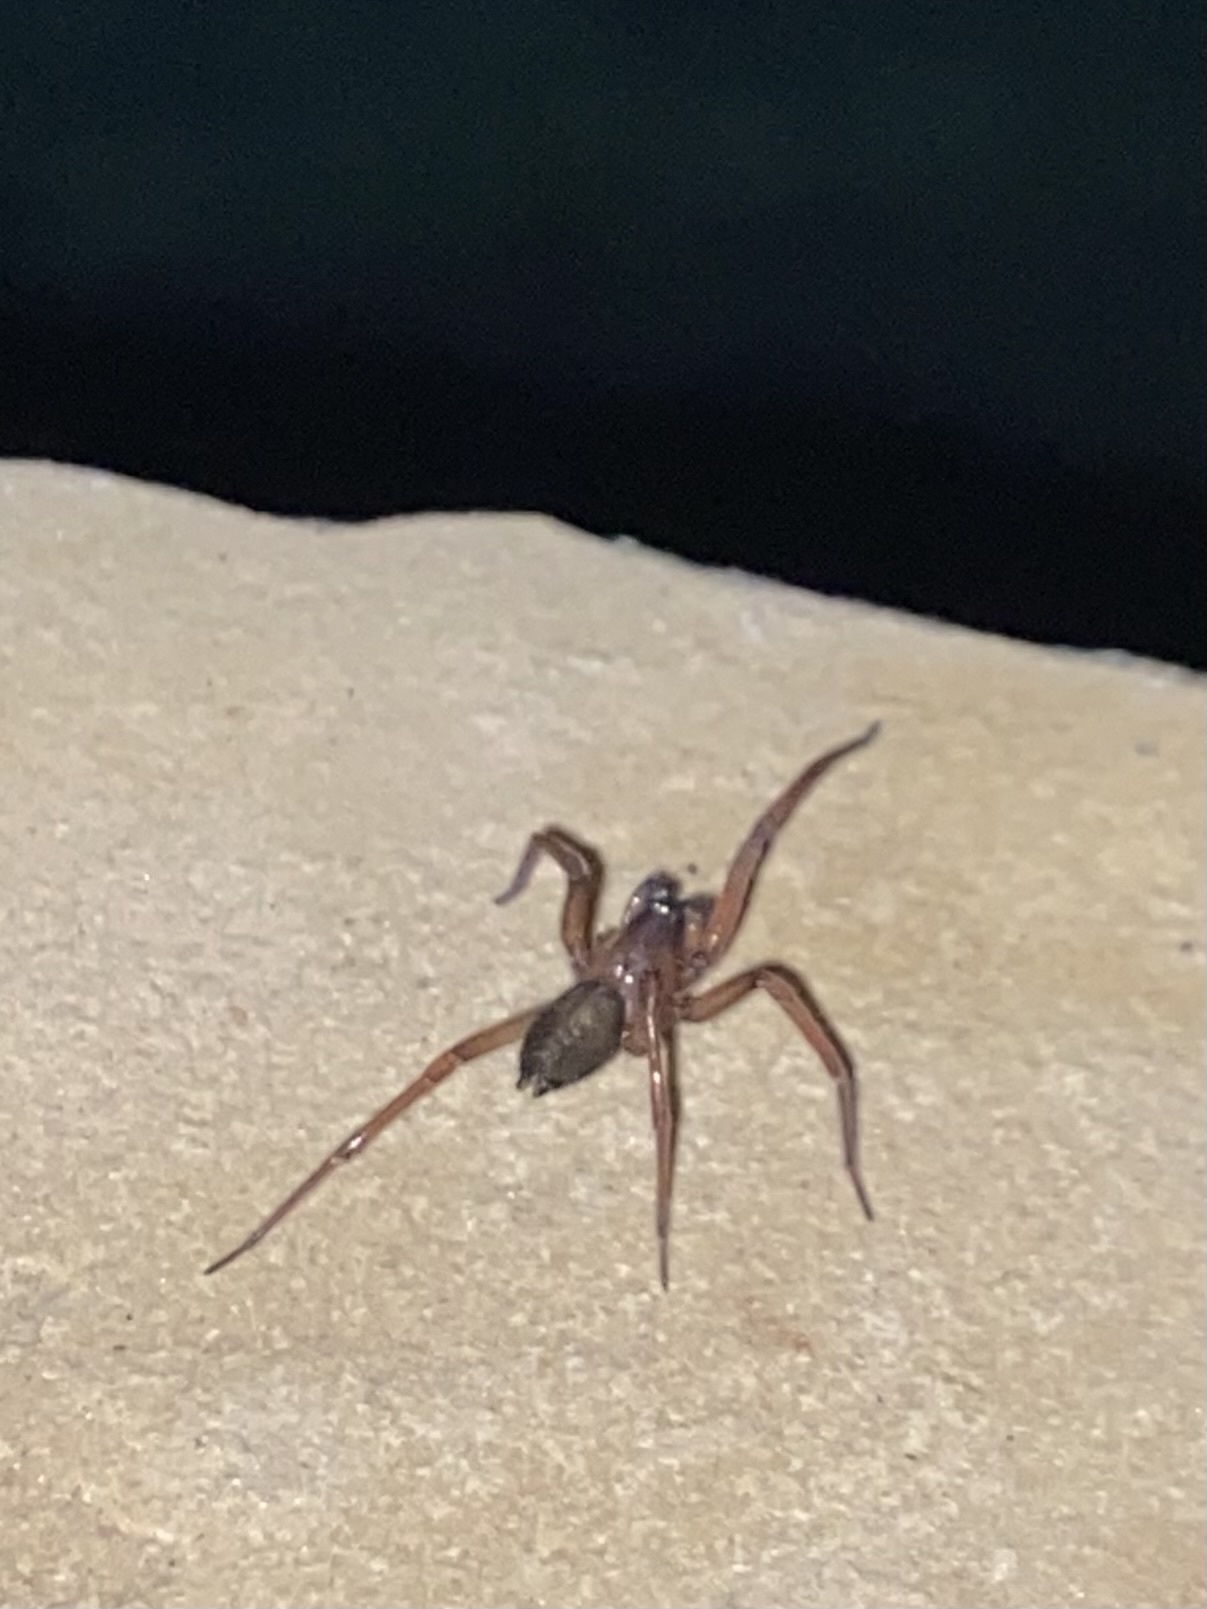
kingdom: Animalia
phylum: Arthropoda
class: Arachnida
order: Araneae
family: Desidae
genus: Metaltella
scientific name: Metaltella simoni
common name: Cribellate spider
